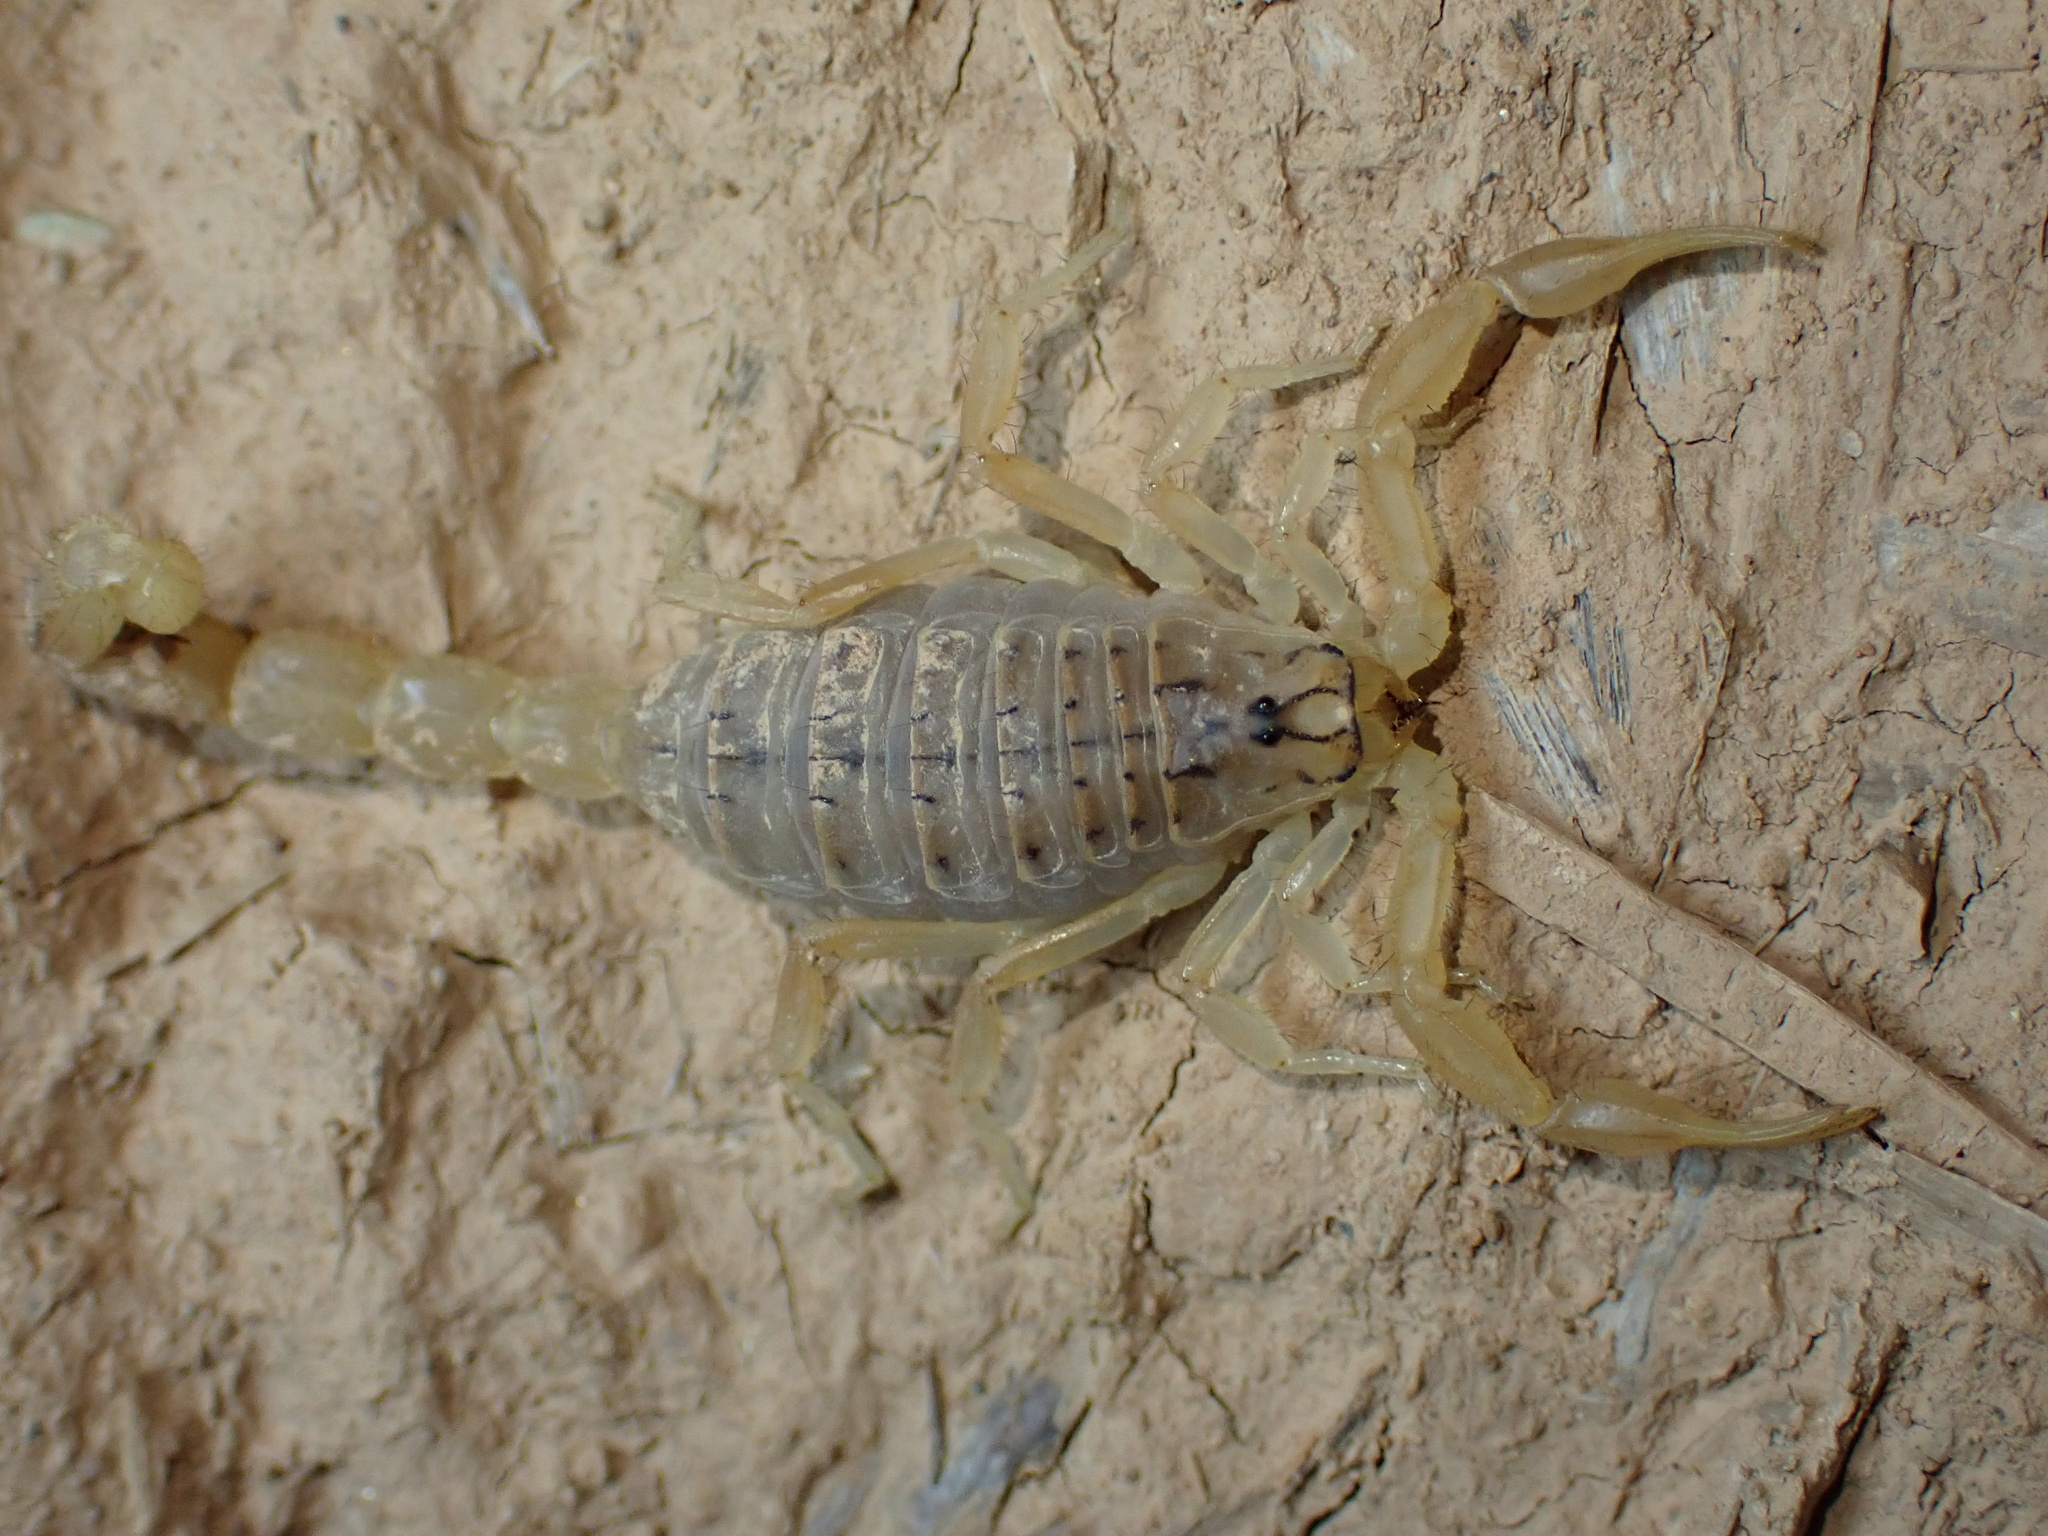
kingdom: Animalia
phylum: Arthropoda
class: Arachnida
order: Scorpiones
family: Buthidae
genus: Mesobuthus
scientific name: Mesobuthus crucittii
